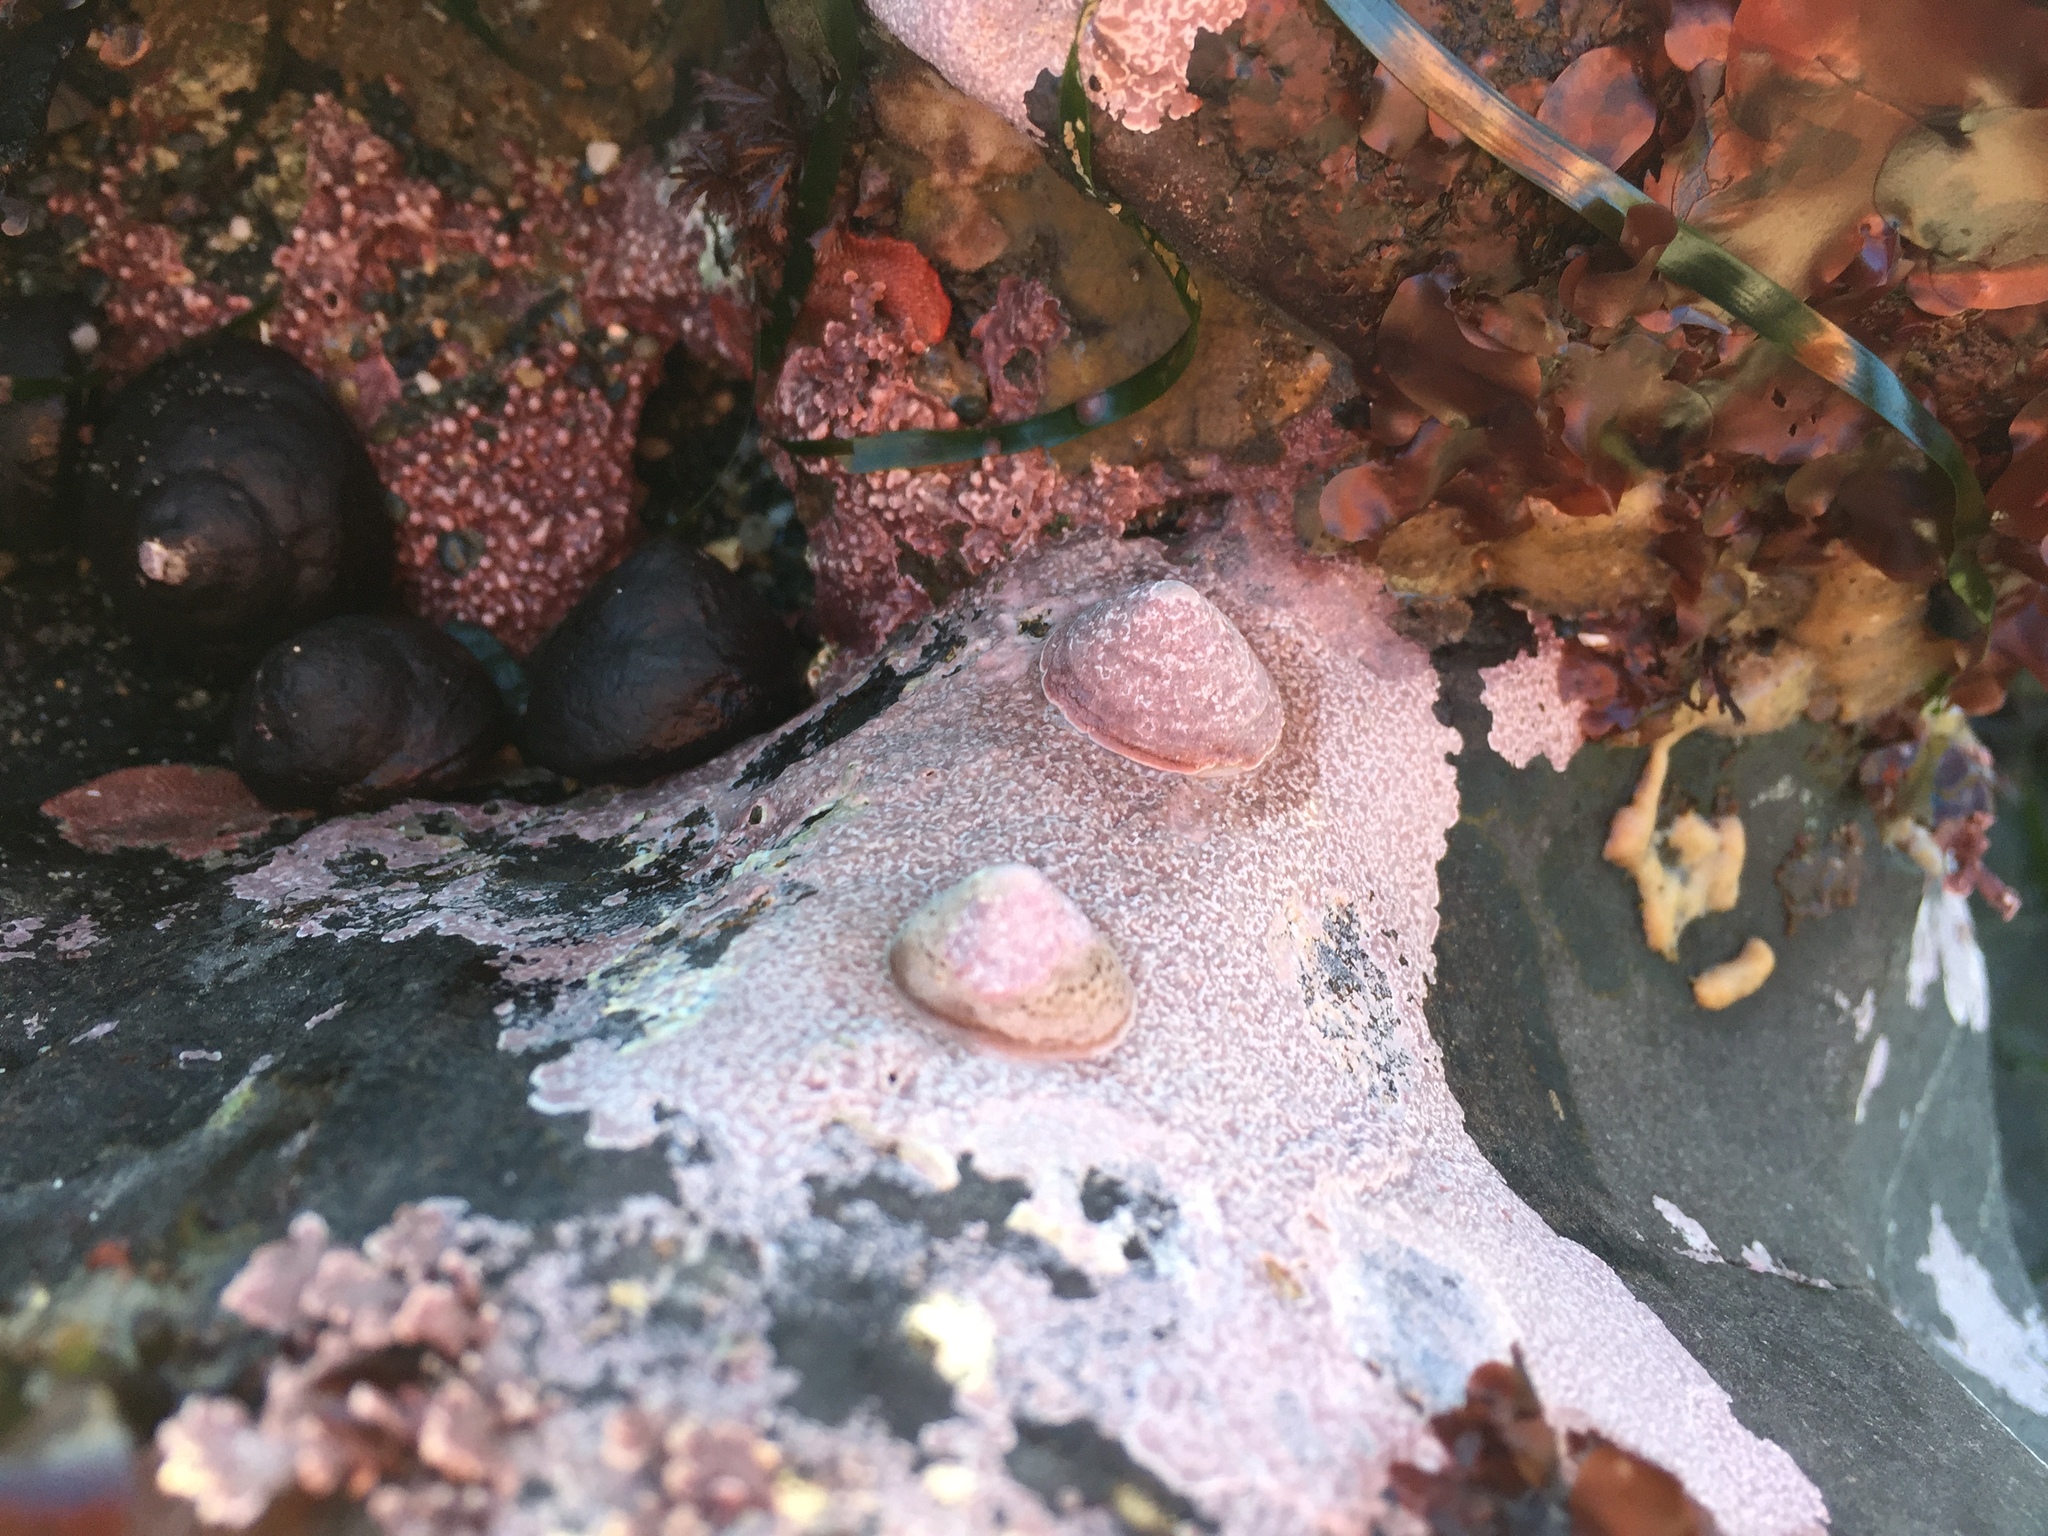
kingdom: Animalia
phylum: Mollusca
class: Gastropoda
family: Acmaeidae
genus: Acmaea
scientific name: Acmaea mitra
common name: Pacific white cap limpet
